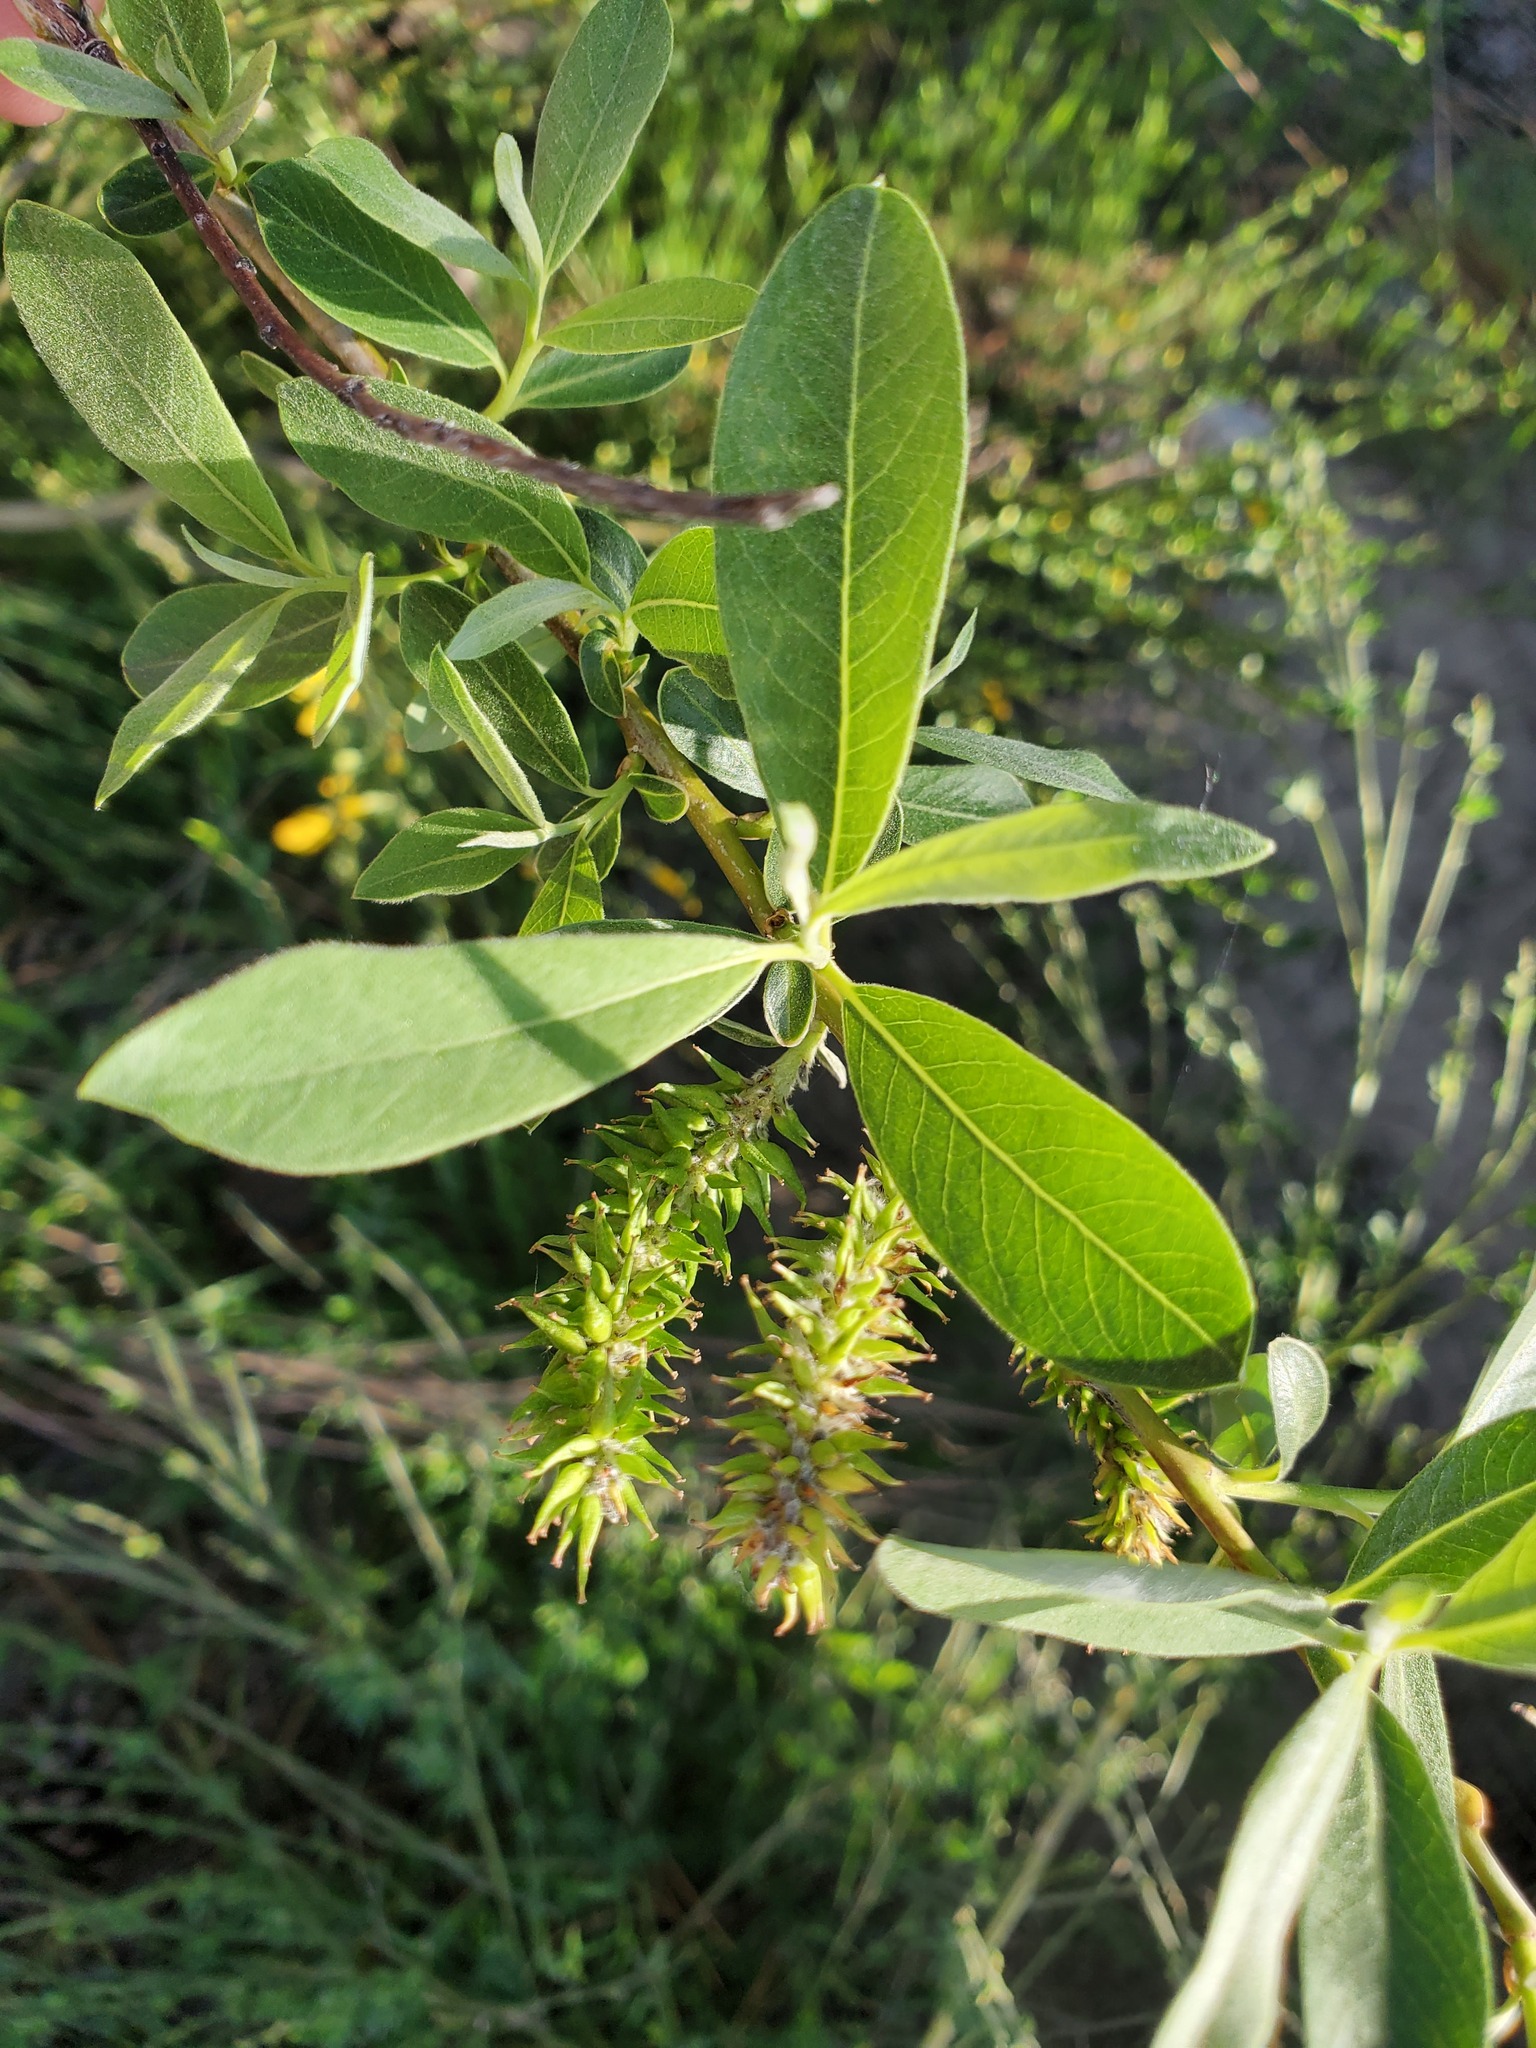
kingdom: Plantae
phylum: Tracheophyta
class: Magnoliopsida
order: Malpighiales
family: Salicaceae
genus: Salix
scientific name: Salix scouleriana
